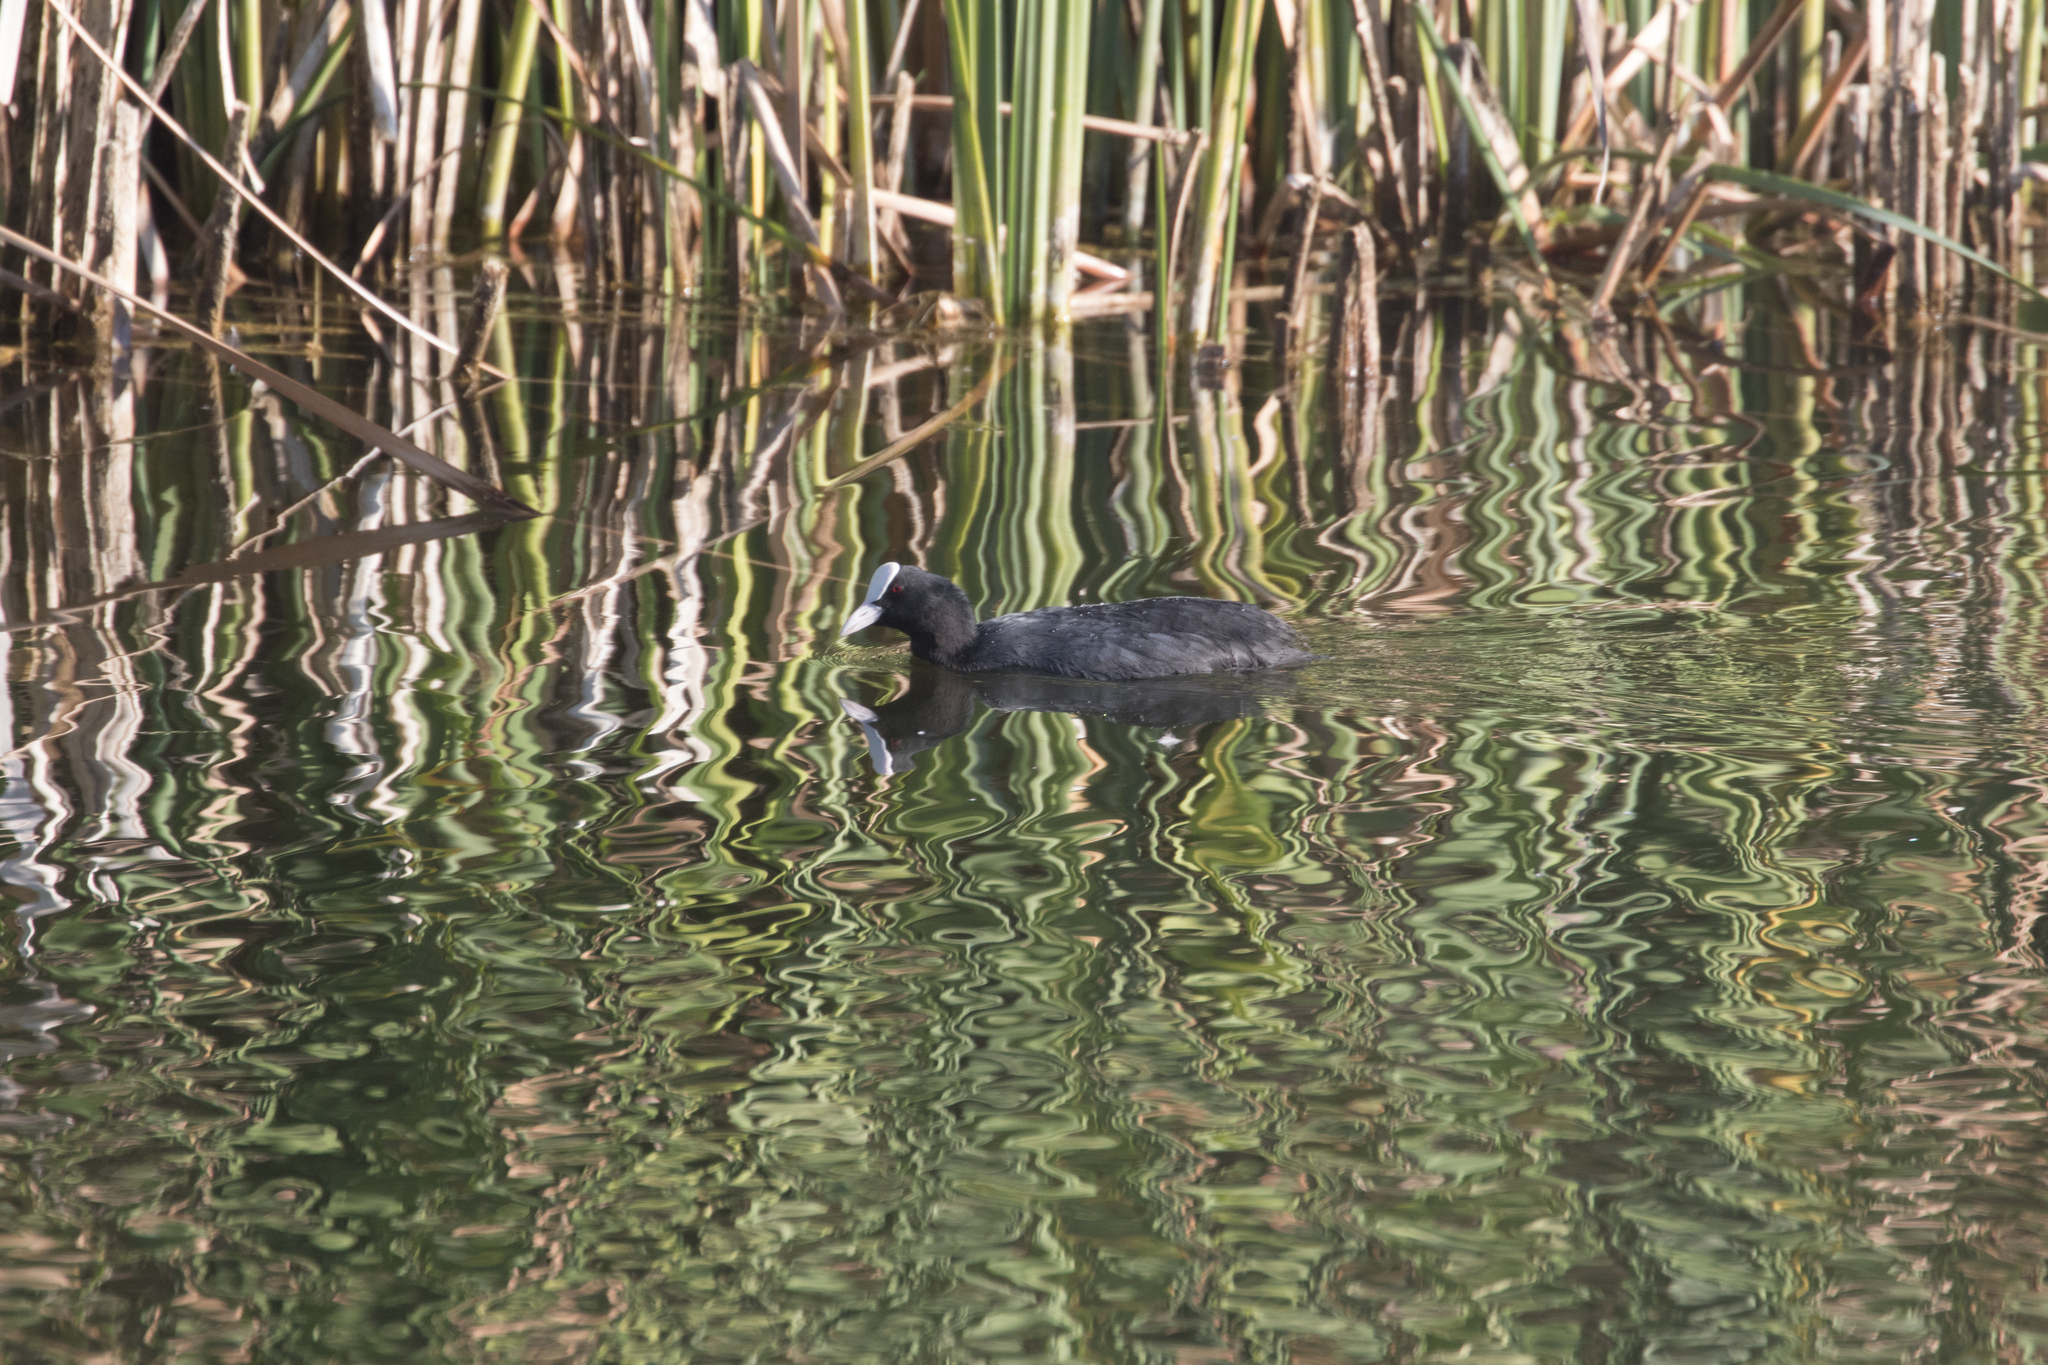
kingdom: Animalia
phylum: Chordata
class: Aves
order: Gruiformes
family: Rallidae
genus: Fulica
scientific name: Fulica atra
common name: Eurasian coot
